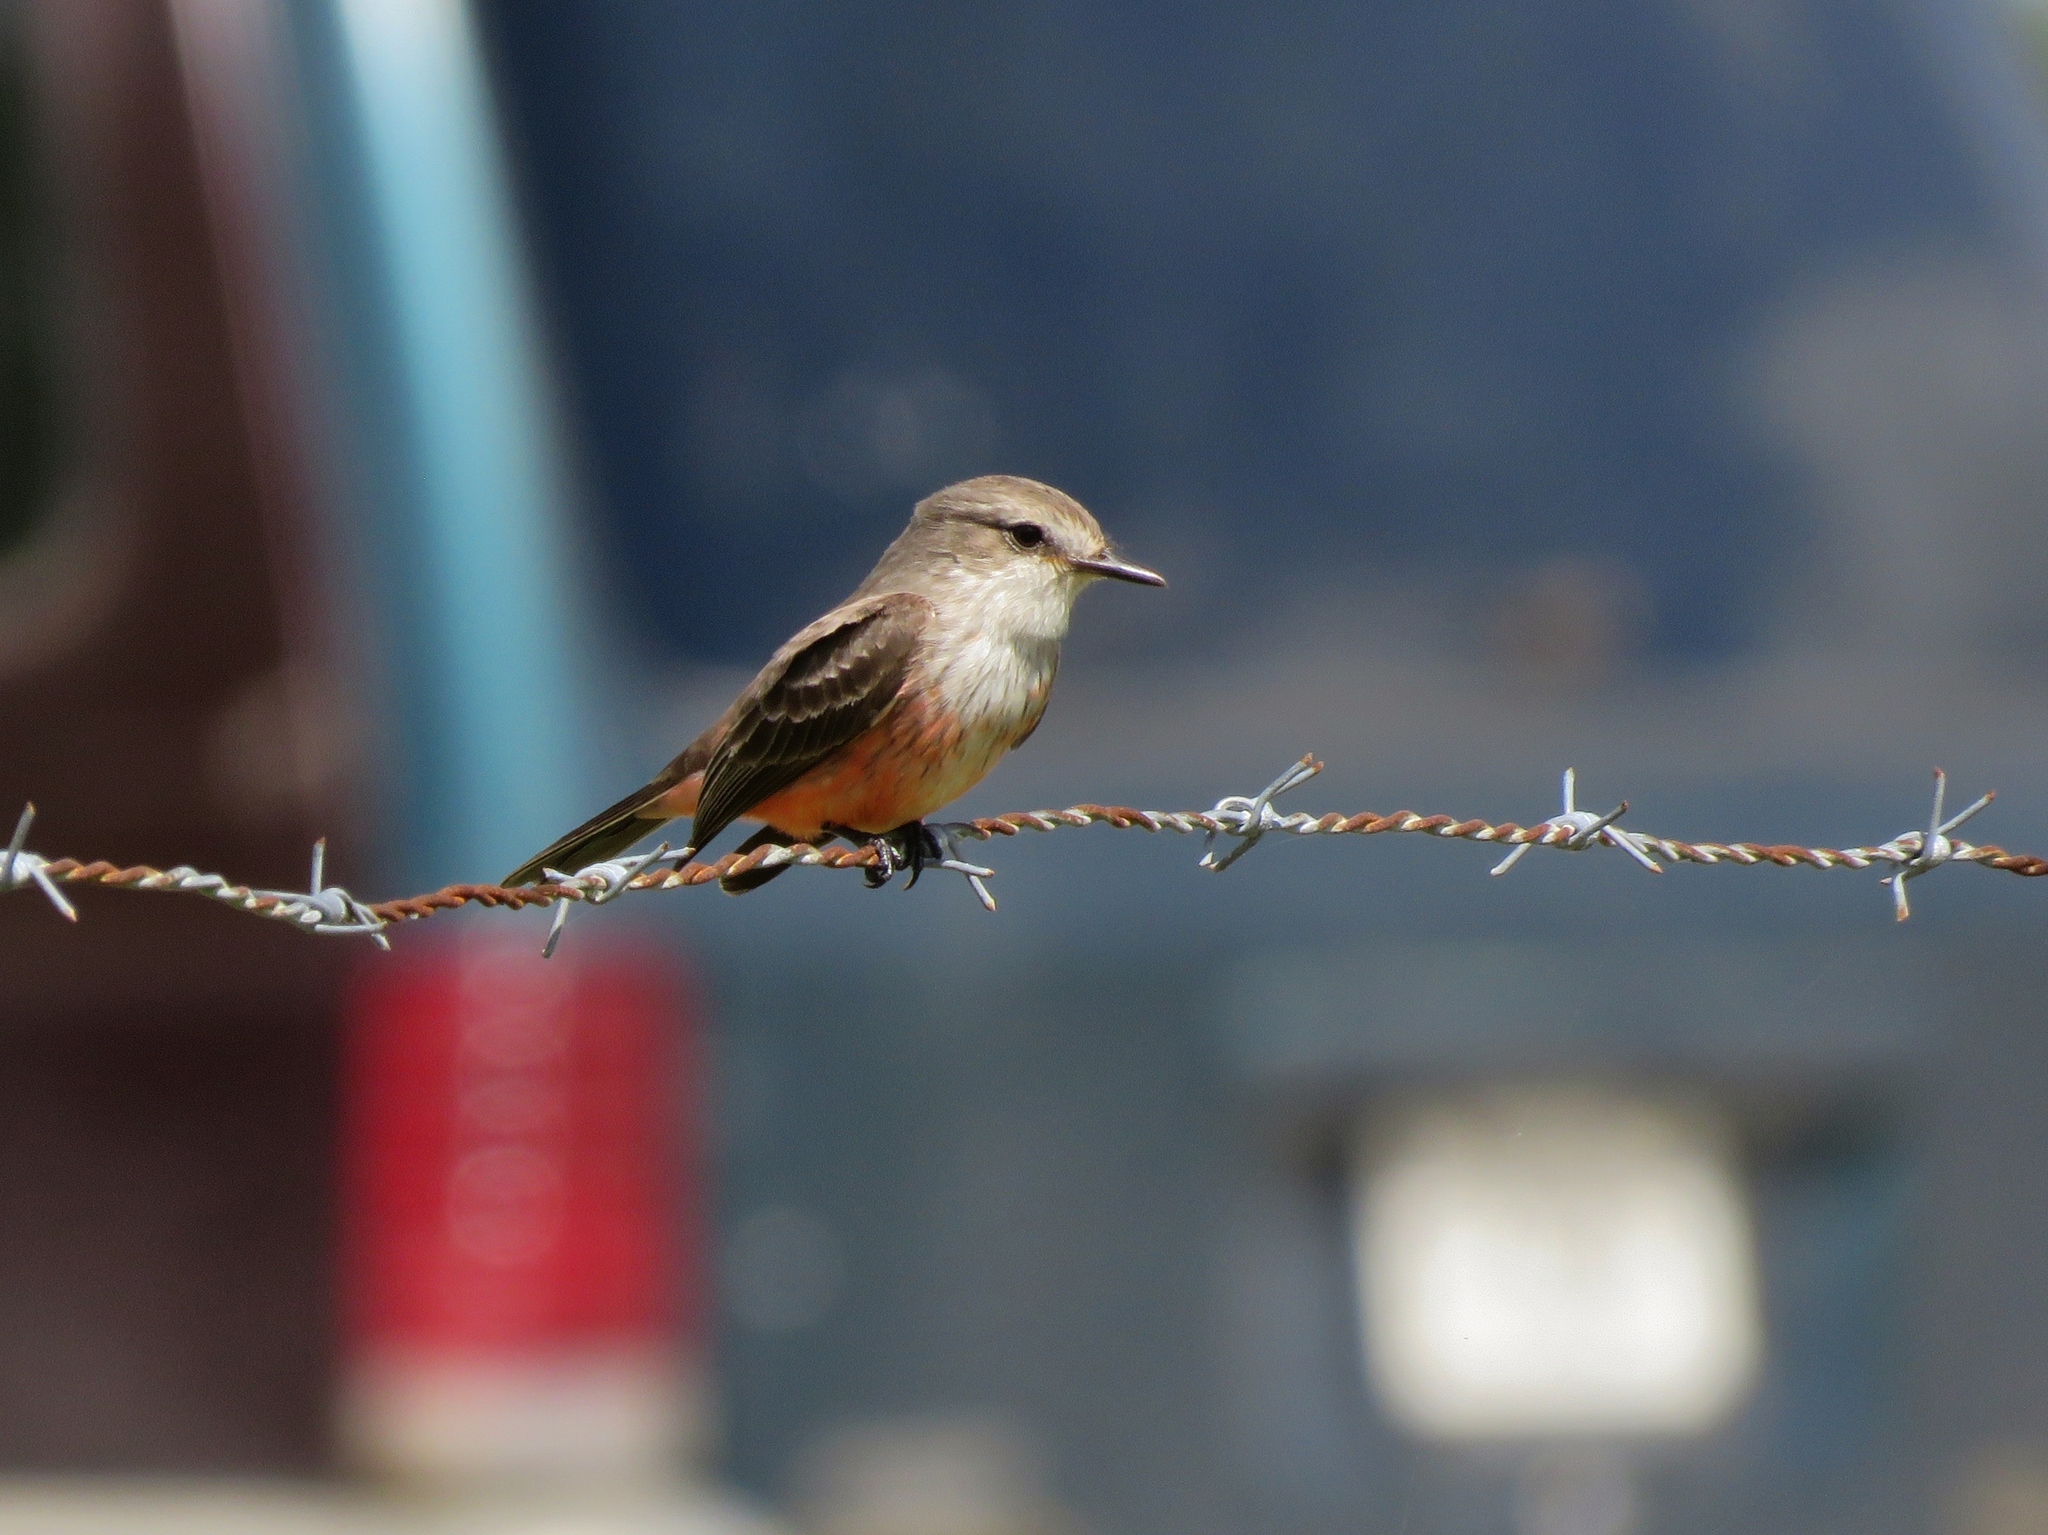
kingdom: Animalia
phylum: Chordata
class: Aves
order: Passeriformes
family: Tyrannidae
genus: Pyrocephalus
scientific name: Pyrocephalus rubinus
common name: Vermilion flycatcher
